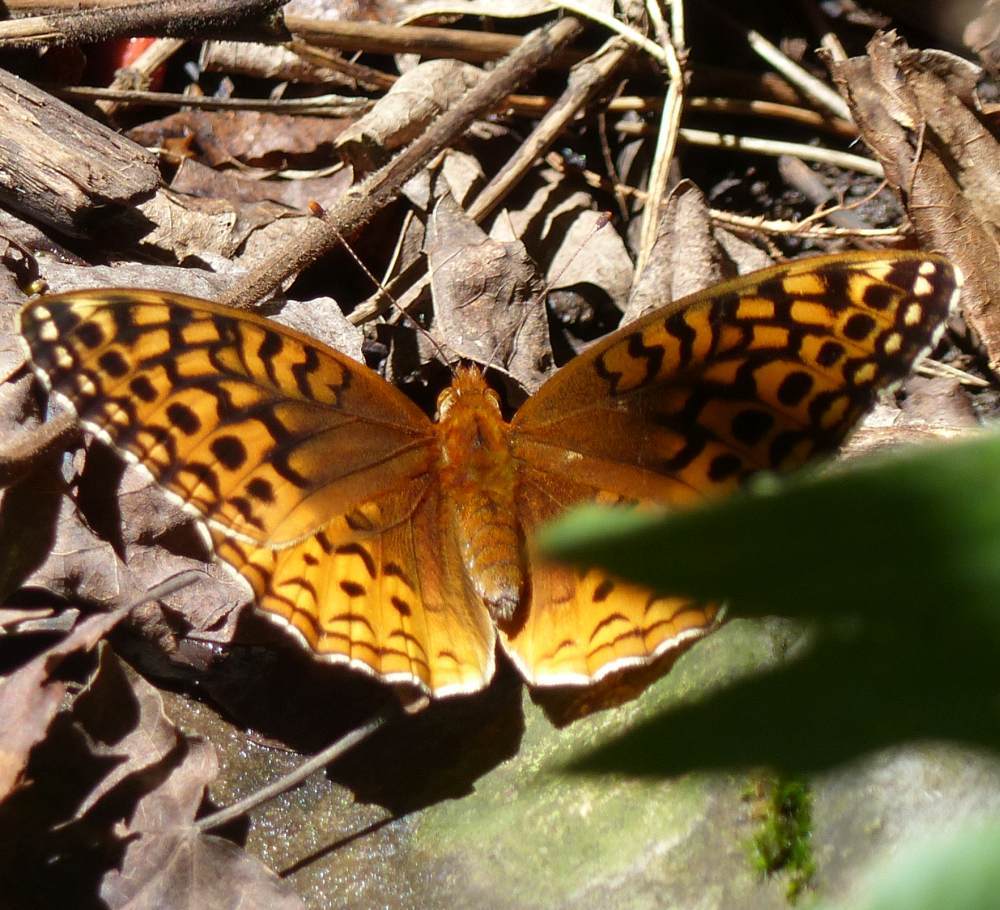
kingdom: Animalia
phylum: Arthropoda
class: Insecta
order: Lepidoptera
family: Nymphalidae
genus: Speyeria
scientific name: Speyeria cybele
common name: Great spangled fritillary
